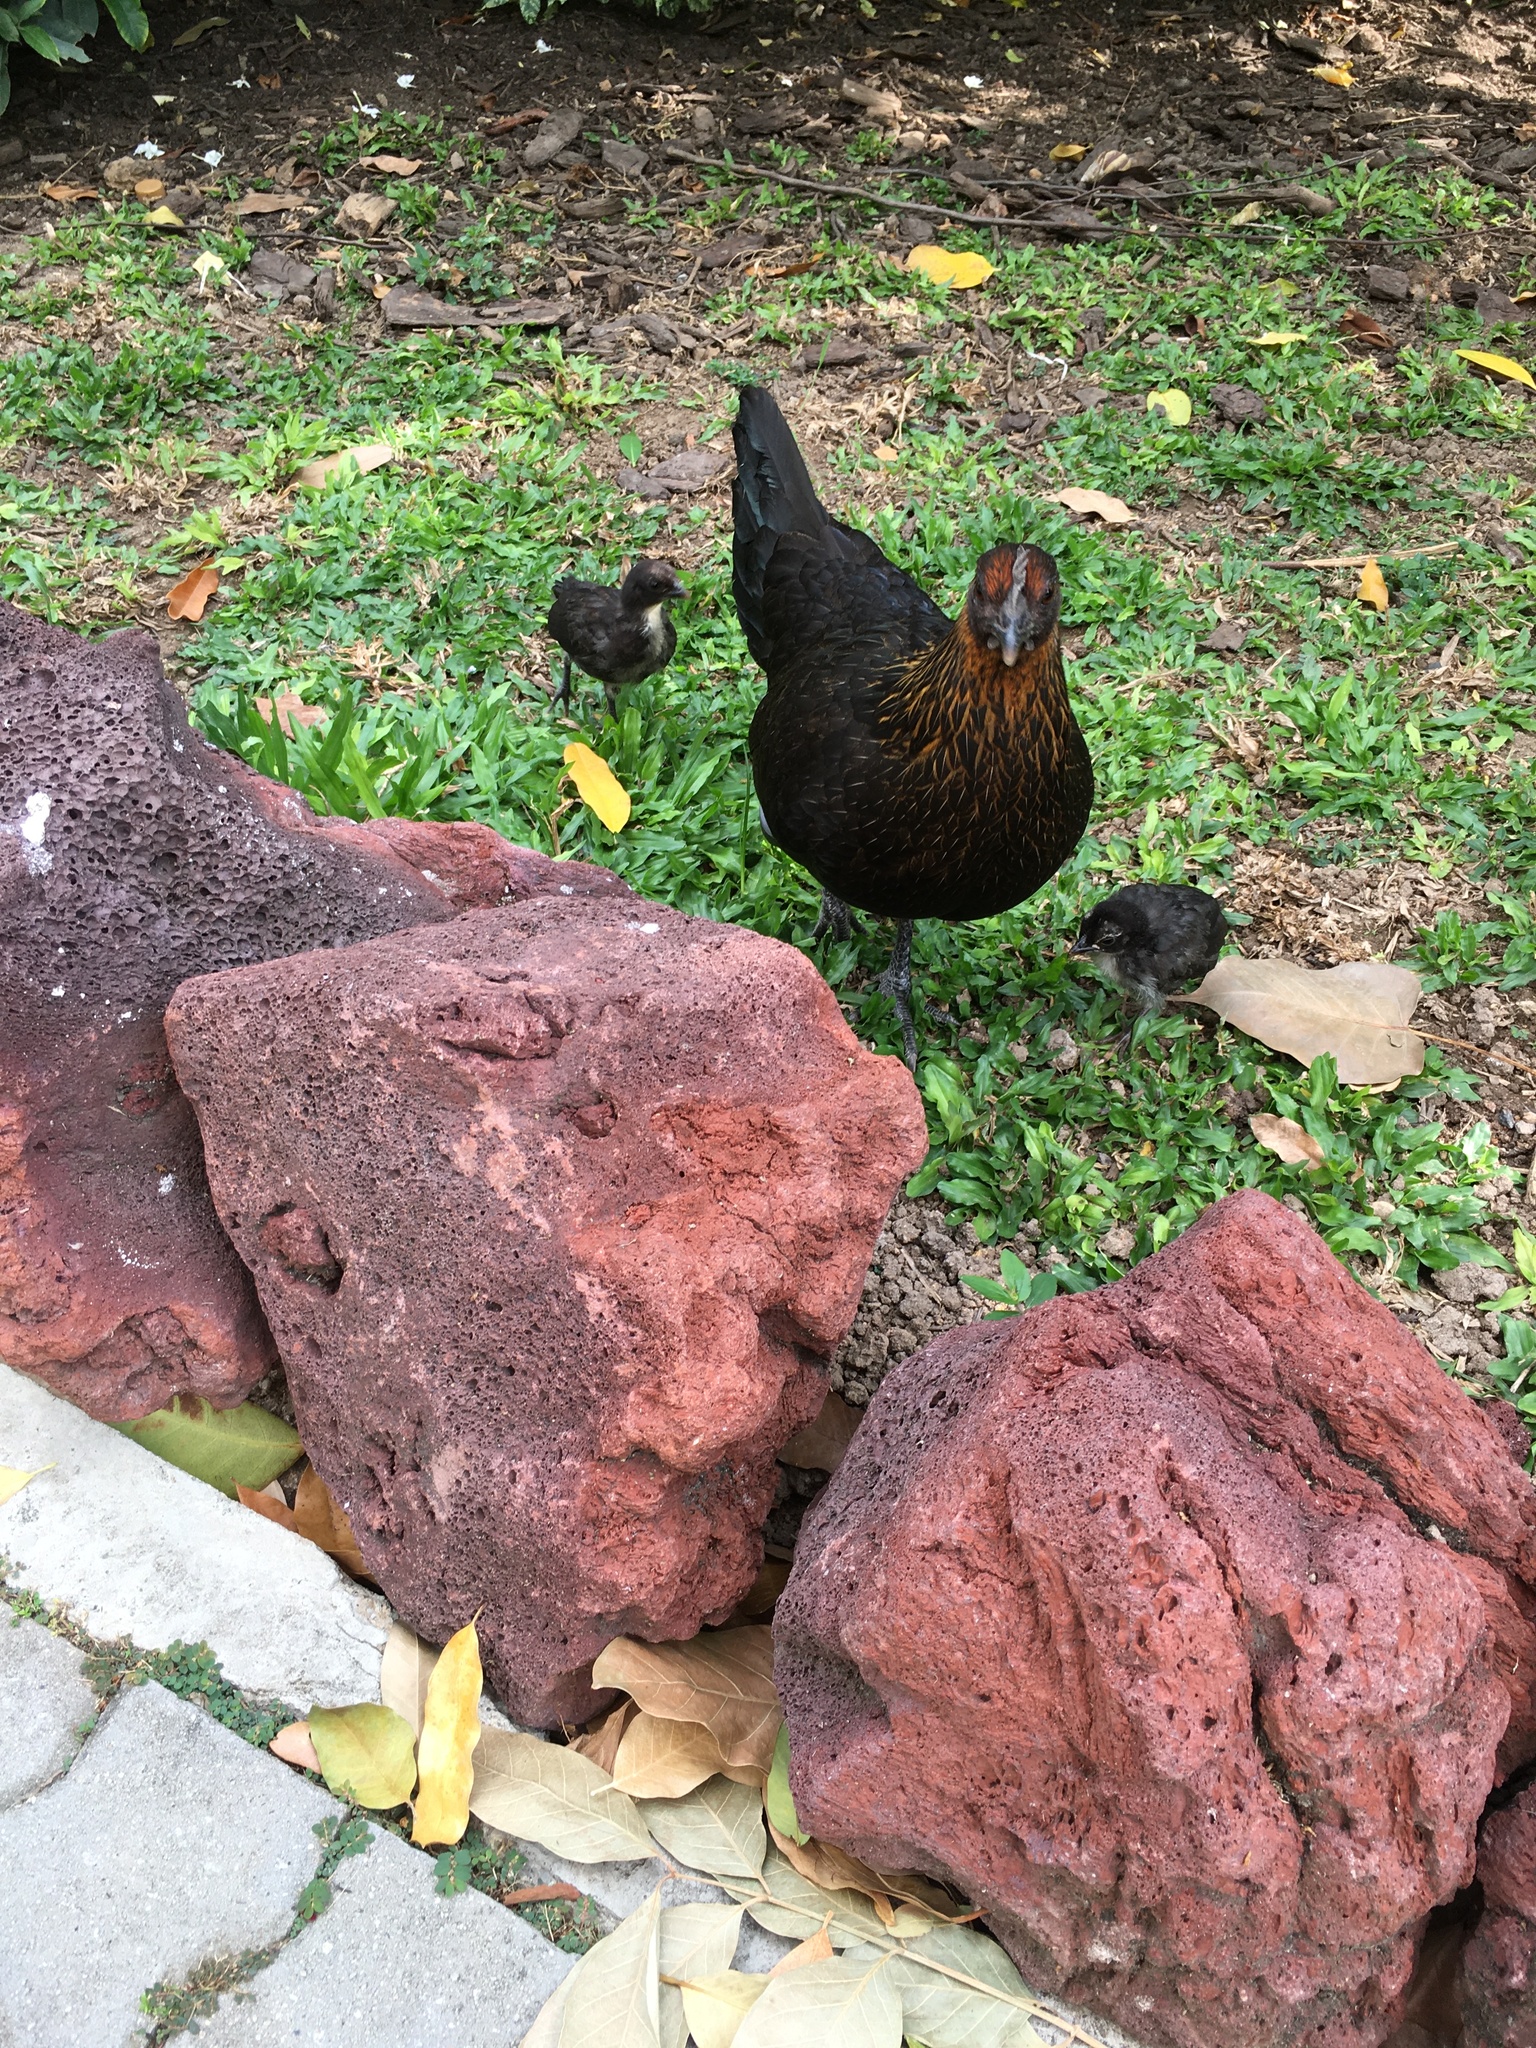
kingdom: Animalia
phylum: Chordata
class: Aves
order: Galliformes
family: Phasianidae
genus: Gallus
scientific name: Gallus gallus
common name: Red junglefowl
